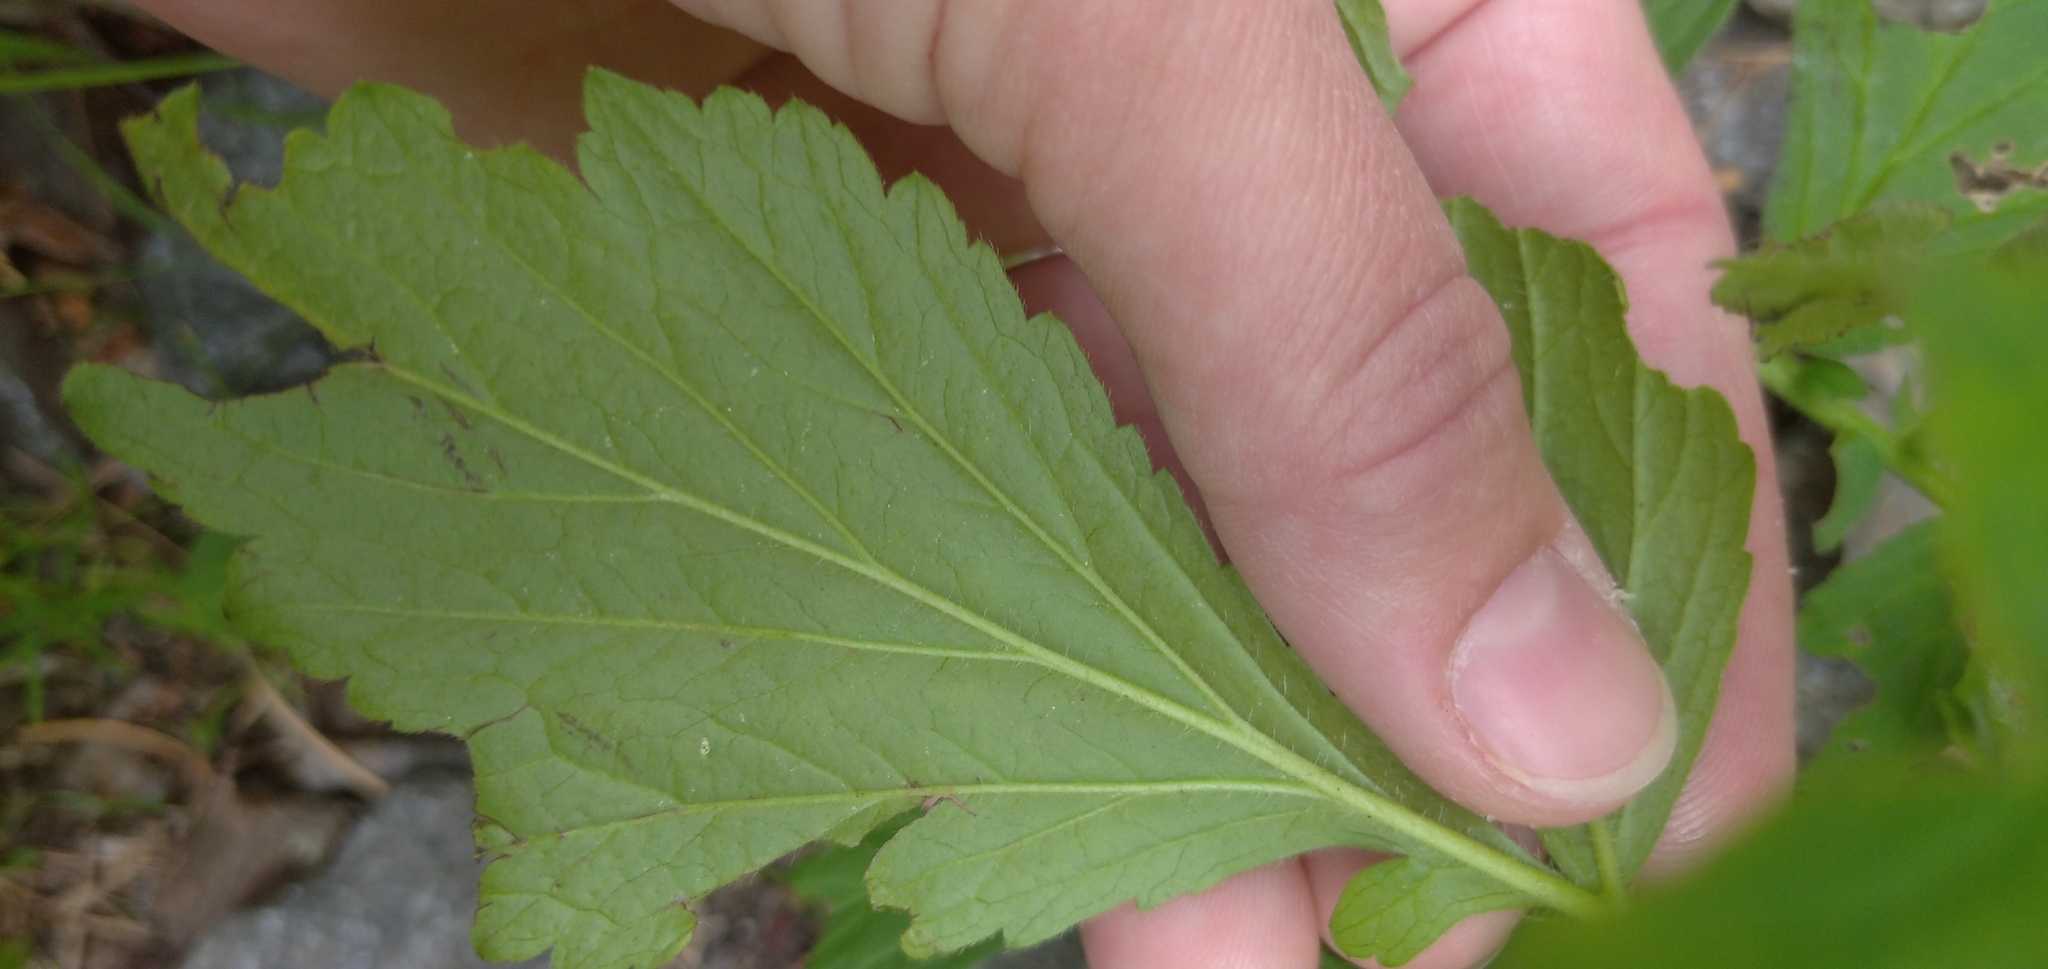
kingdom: Plantae
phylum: Tracheophyta
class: Magnoliopsida
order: Rosales
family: Rosaceae
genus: Geum
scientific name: Geum aleppicum
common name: Yellow avens
